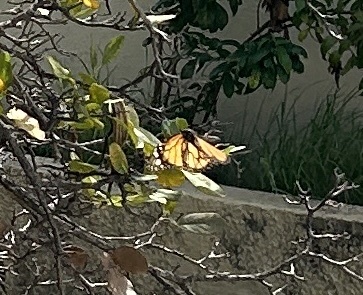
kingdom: Animalia
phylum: Arthropoda
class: Insecta
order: Lepidoptera
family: Nymphalidae
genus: Danaus
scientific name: Danaus plexippus
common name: Monarch
